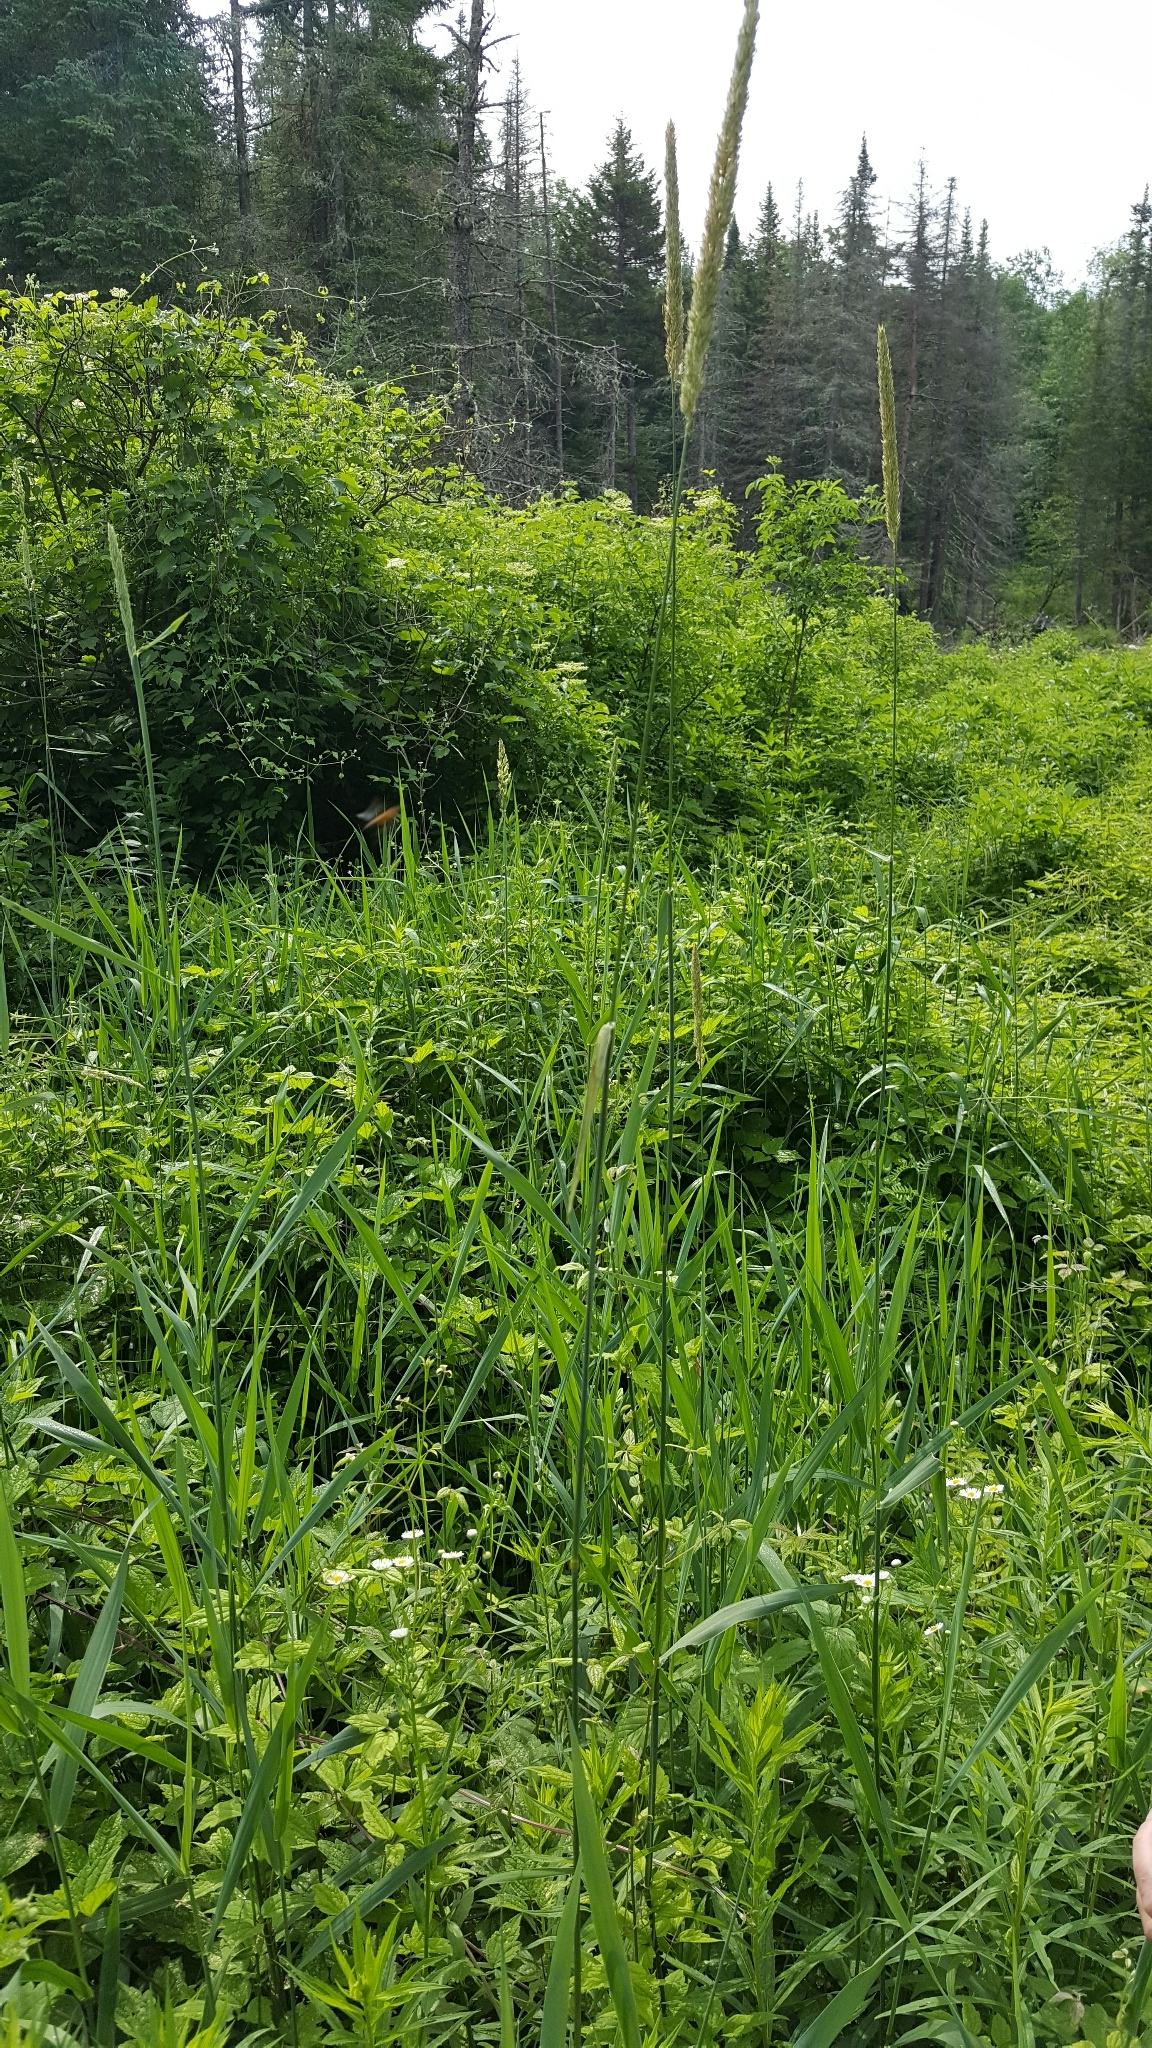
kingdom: Plantae
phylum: Tracheophyta
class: Liliopsida
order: Poales
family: Poaceae
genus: Phalaris
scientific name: Phalaris arundinacea
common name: Reed canary-grass
